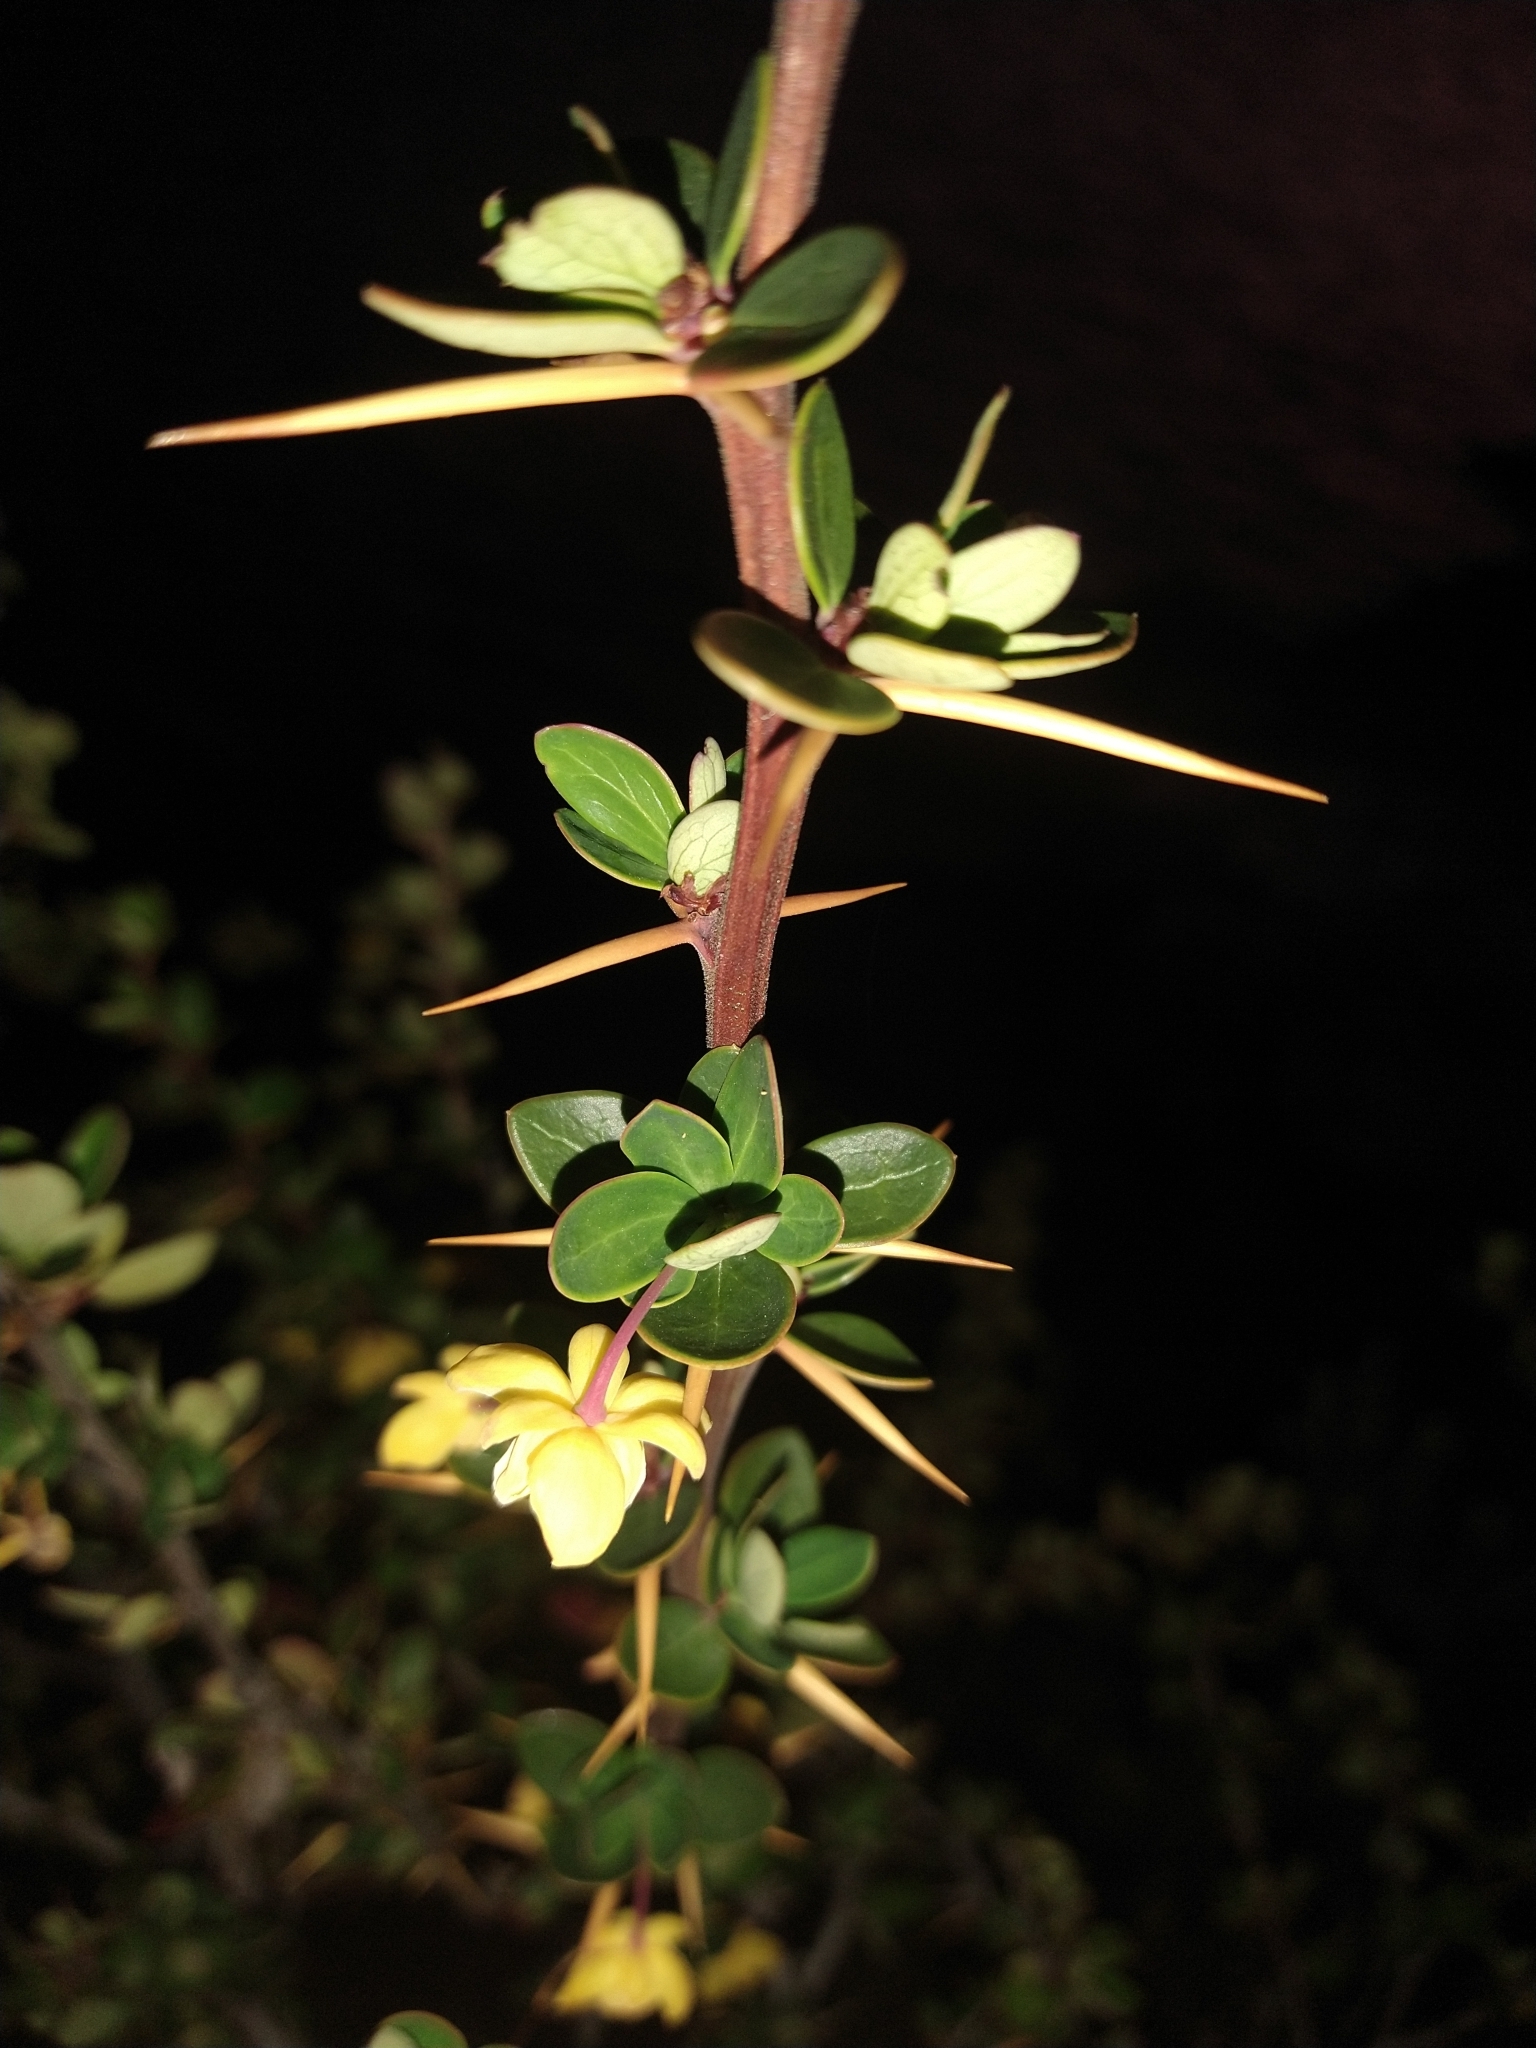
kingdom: Plantae
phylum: Tracheophyta
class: Magnoliopsida
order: Ranunculales
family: Berberidaceae
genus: Berberis
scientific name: Berberis microphylla
